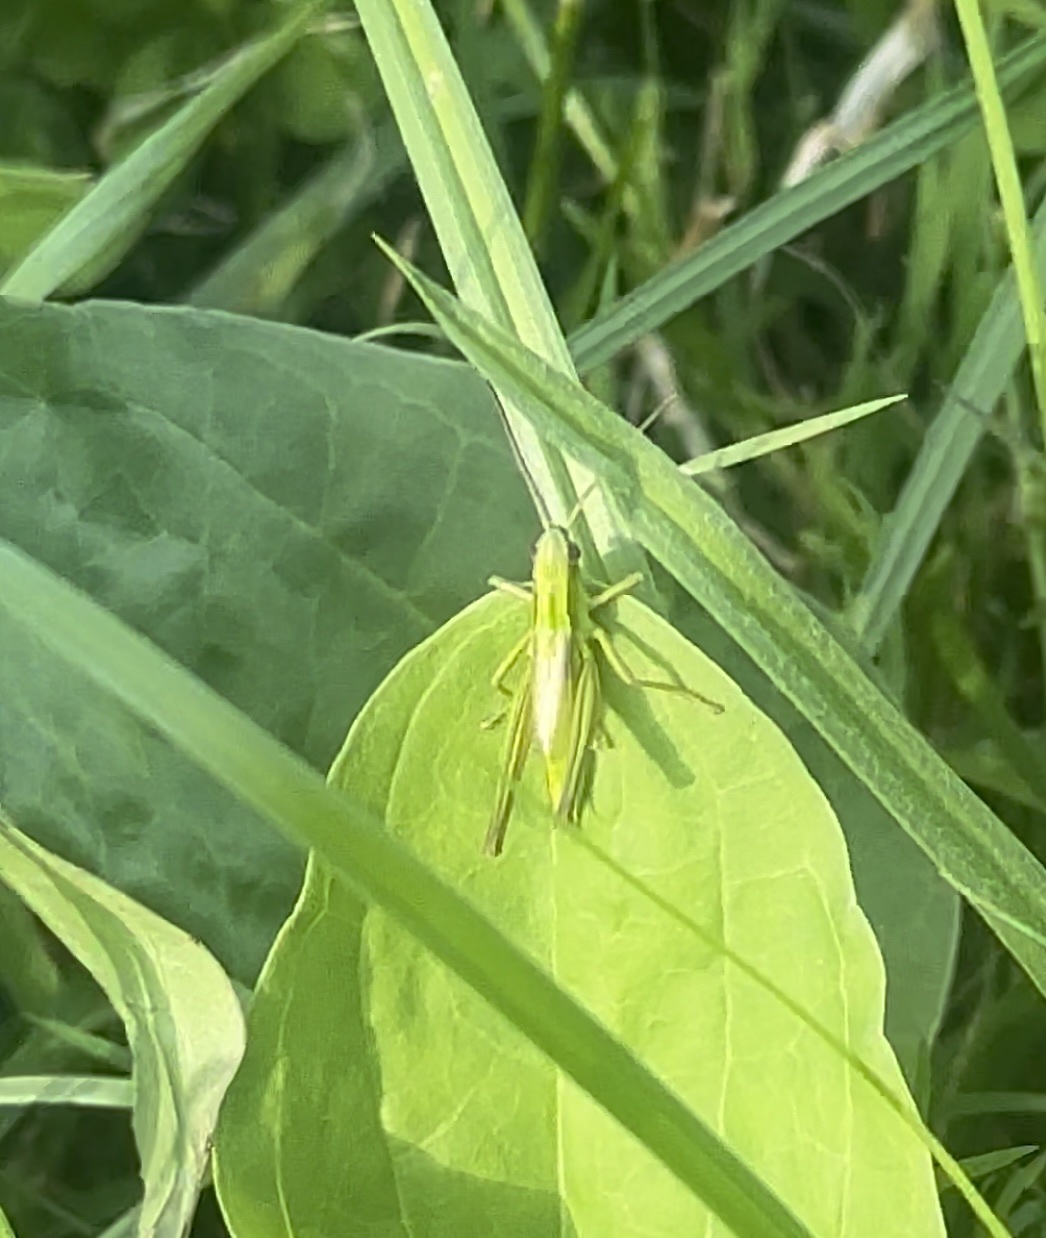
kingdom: Animalia
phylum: Arthropoda
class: Insecta
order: Orthoptera
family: Acrididae
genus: Euthystira
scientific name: Euthystira brachyptera
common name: Small gold grasshopper
